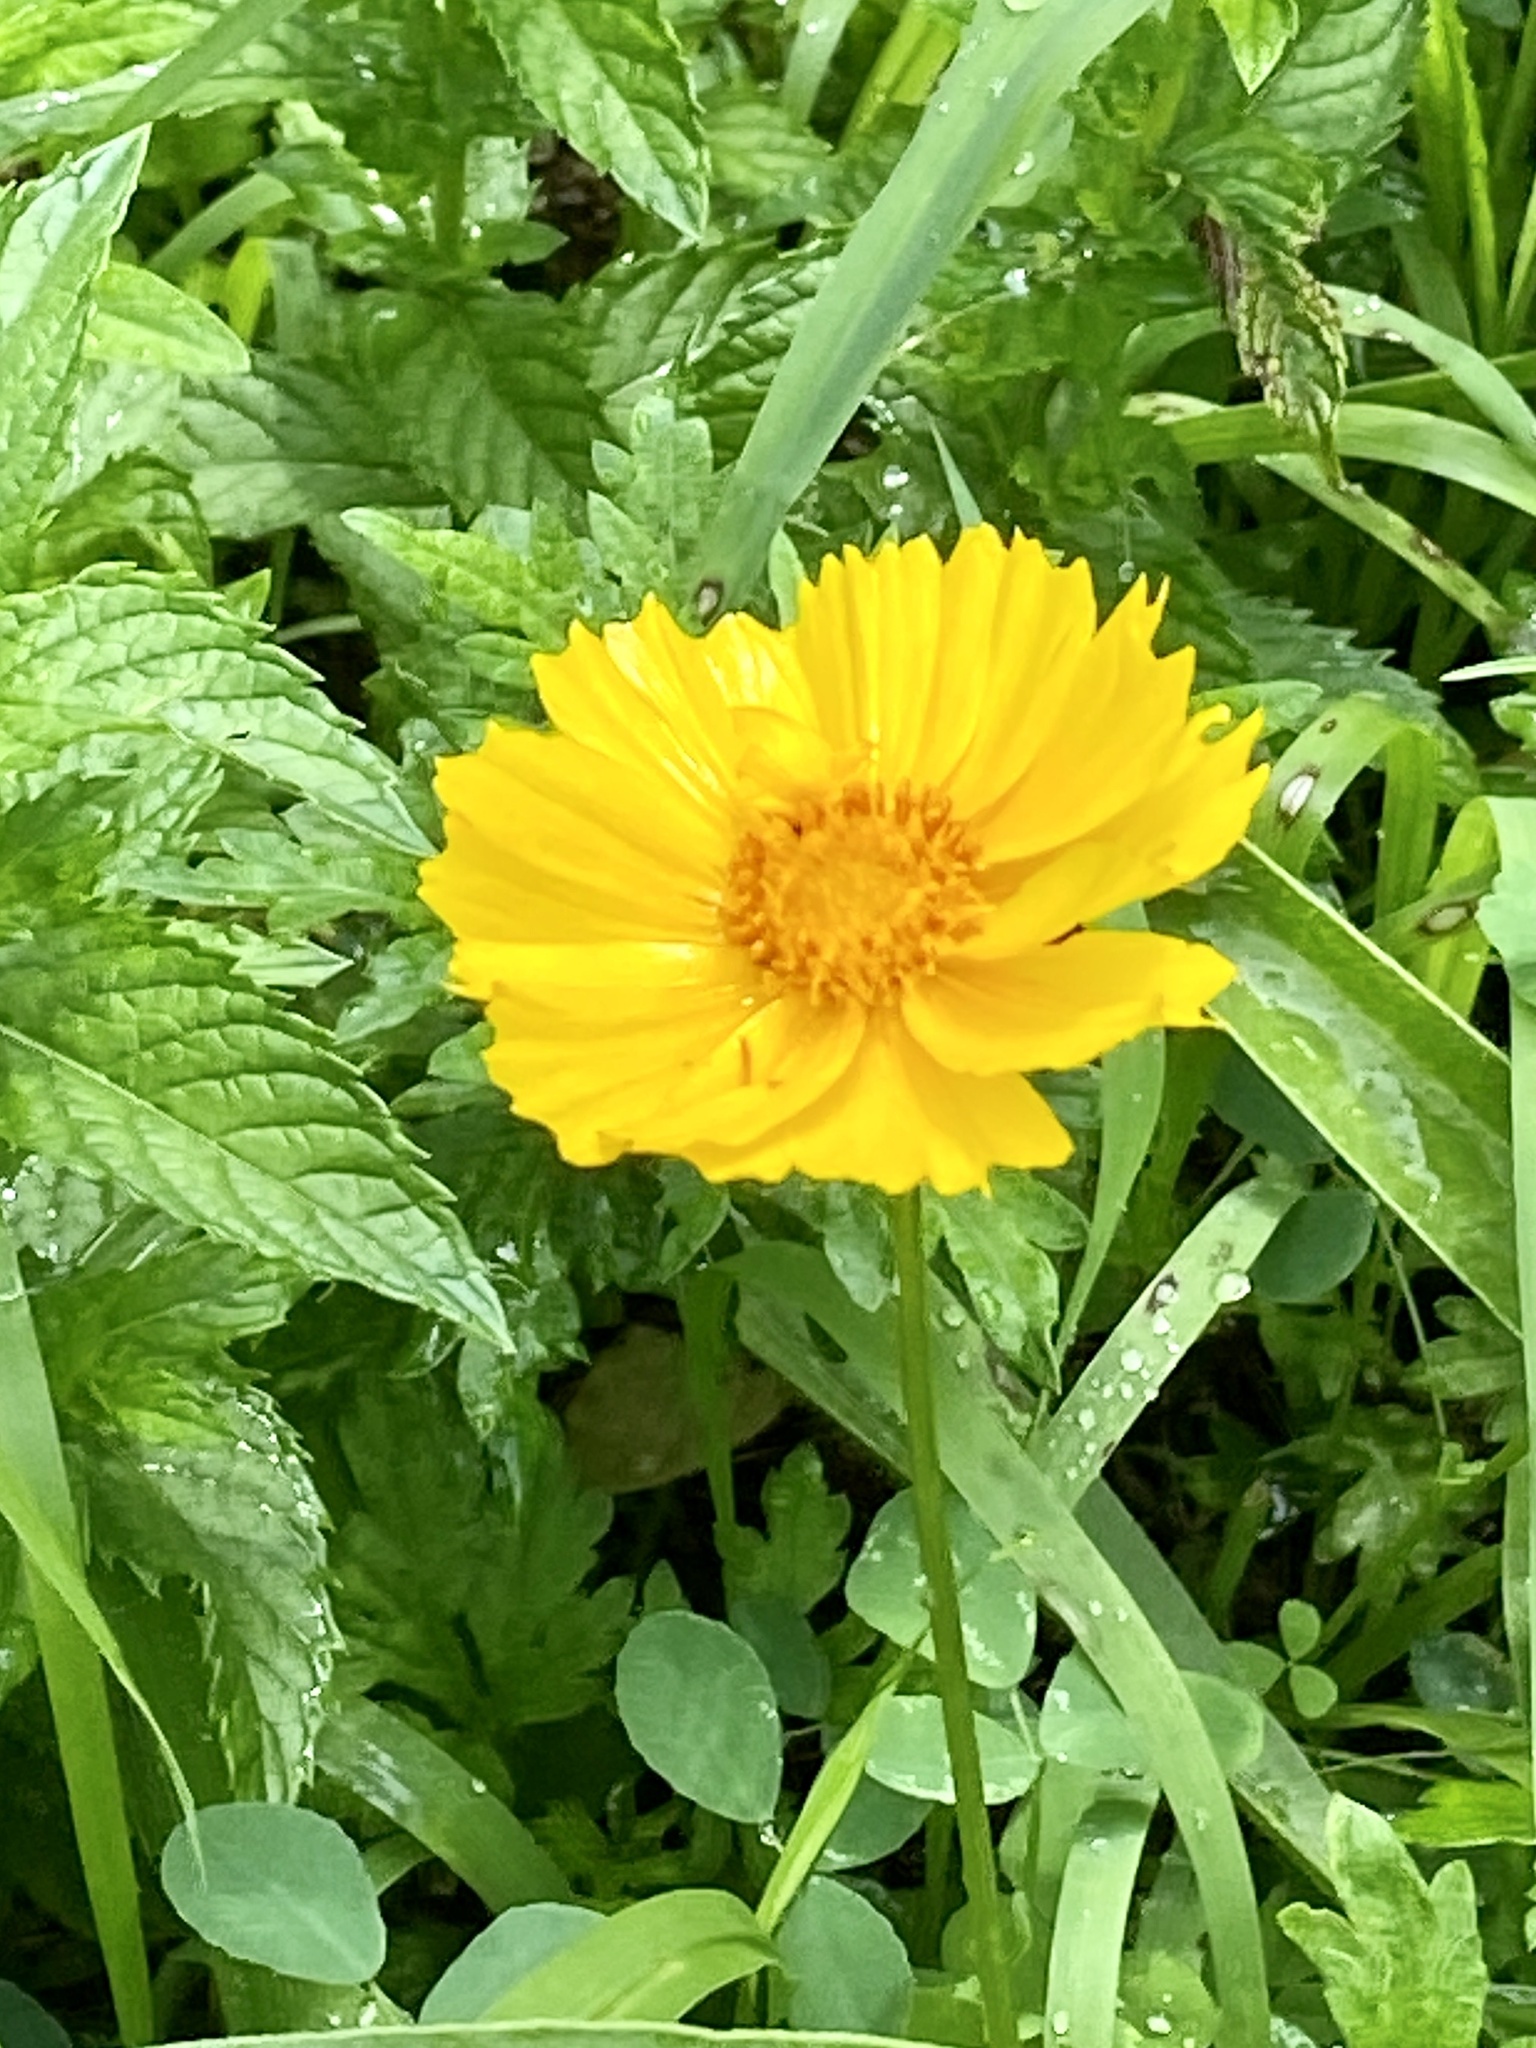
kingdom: Plantae
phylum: Tracheophyta
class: Magnoliopsida
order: Asterales
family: Asteraceae
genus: Coreopsis
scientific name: Coreopsis lanceolata
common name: Garden coreopsis
